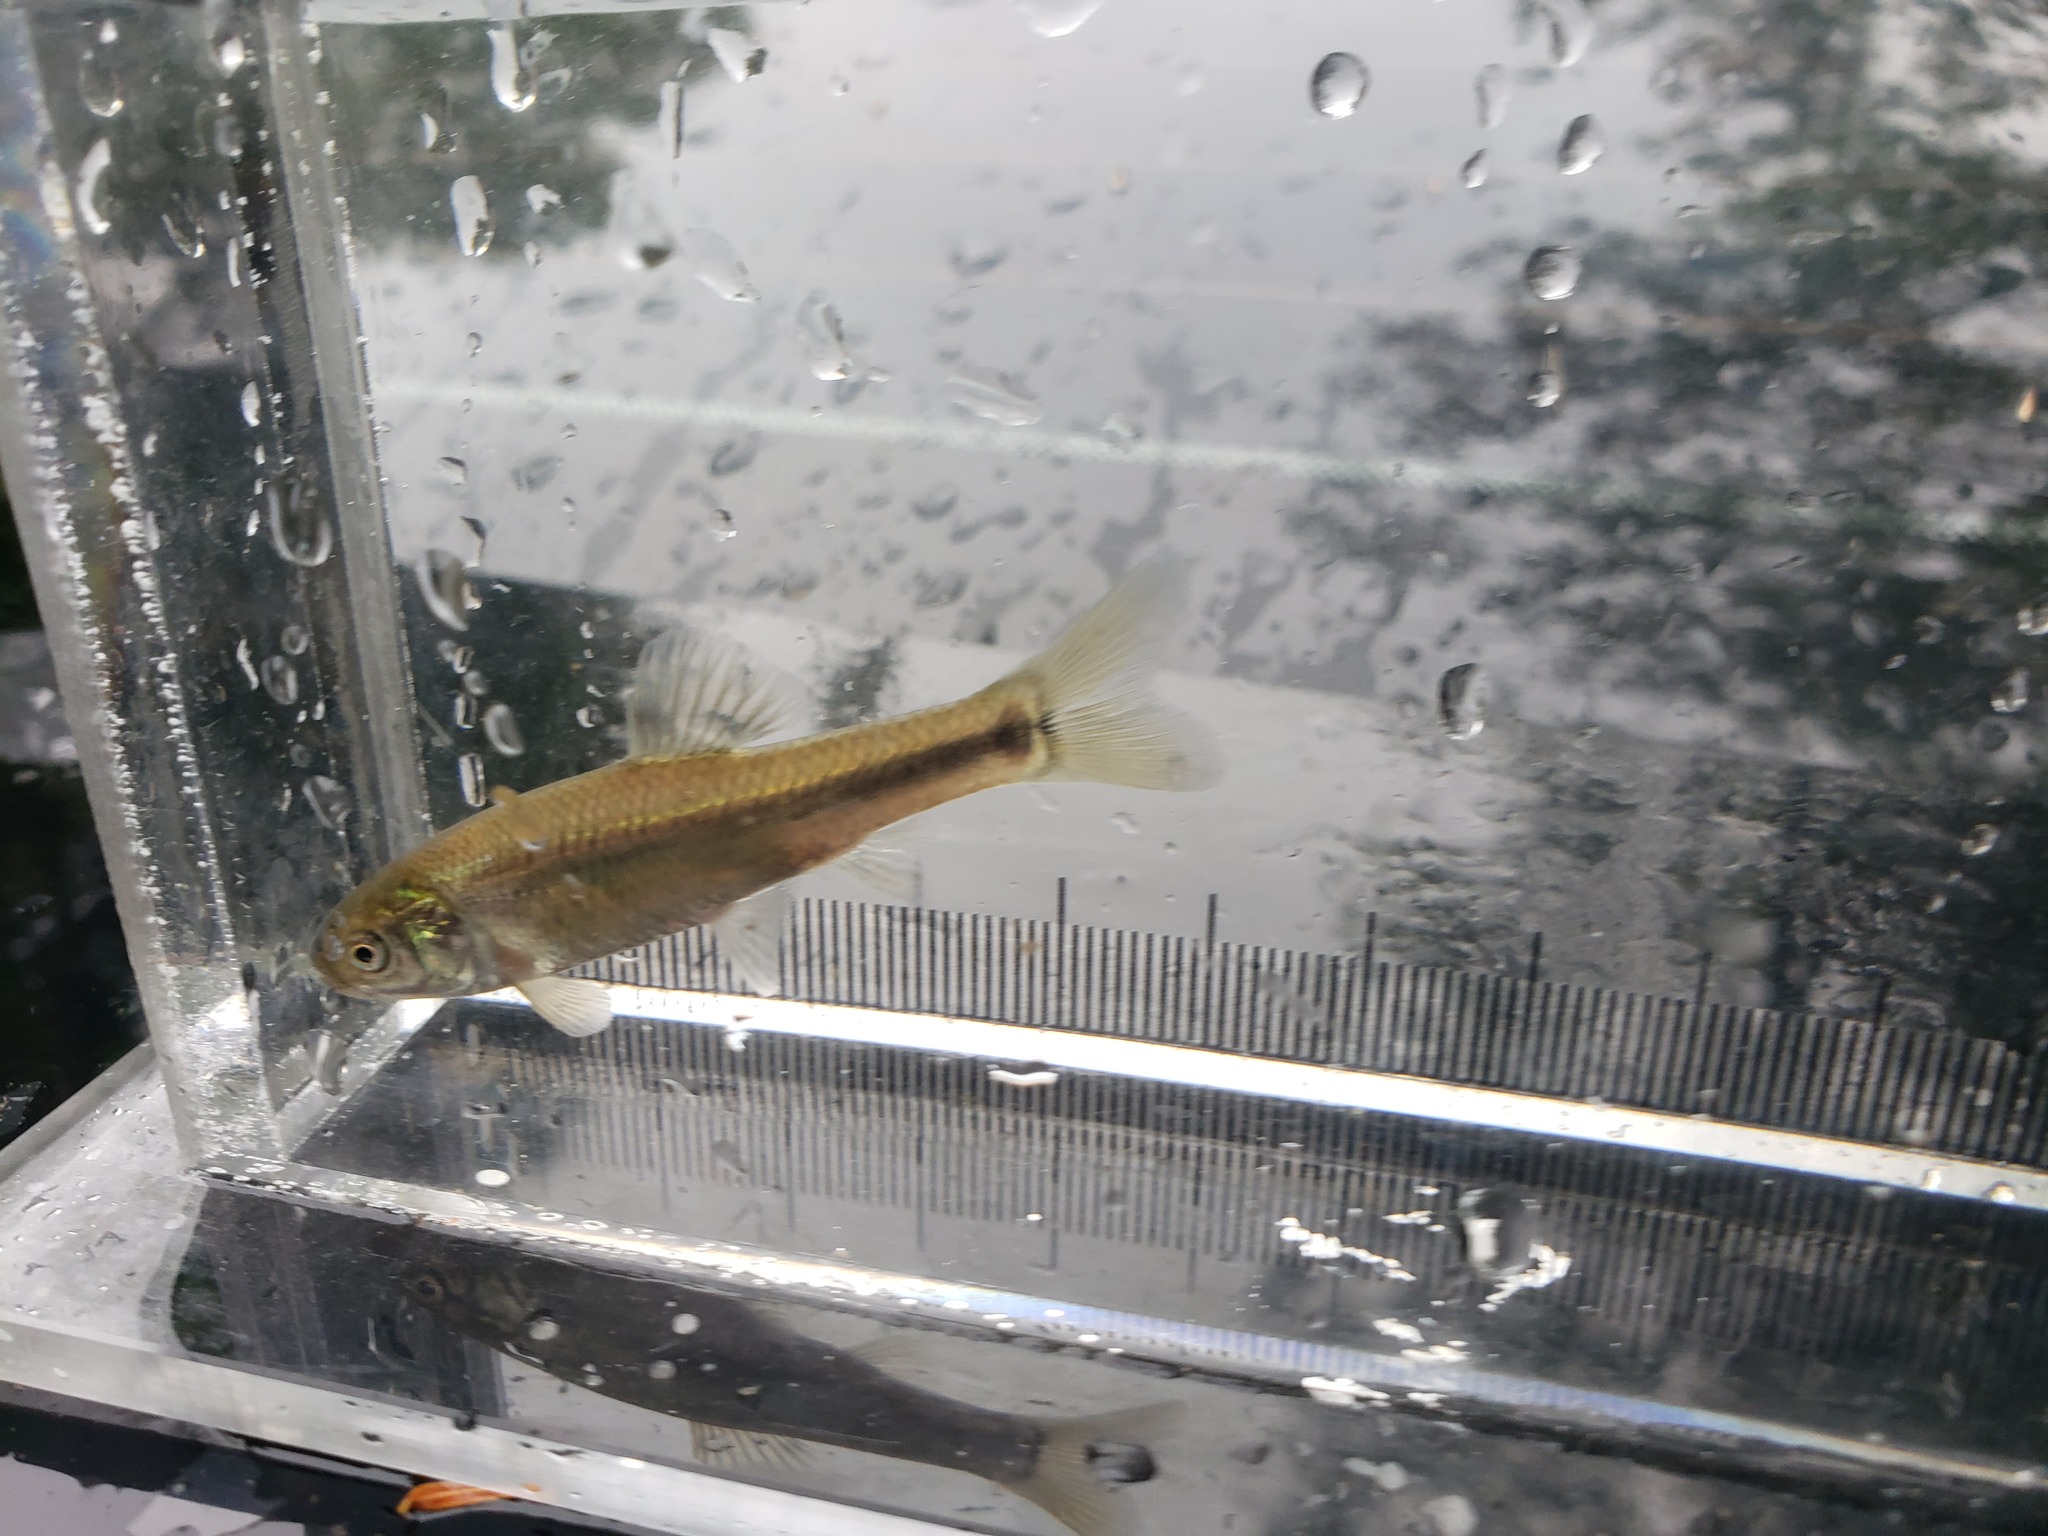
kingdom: Animalia
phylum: Chordata
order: Cypriniformes
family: Cyprinidae
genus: Pimephales
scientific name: Pimephales promelas
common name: Fathead minnow
